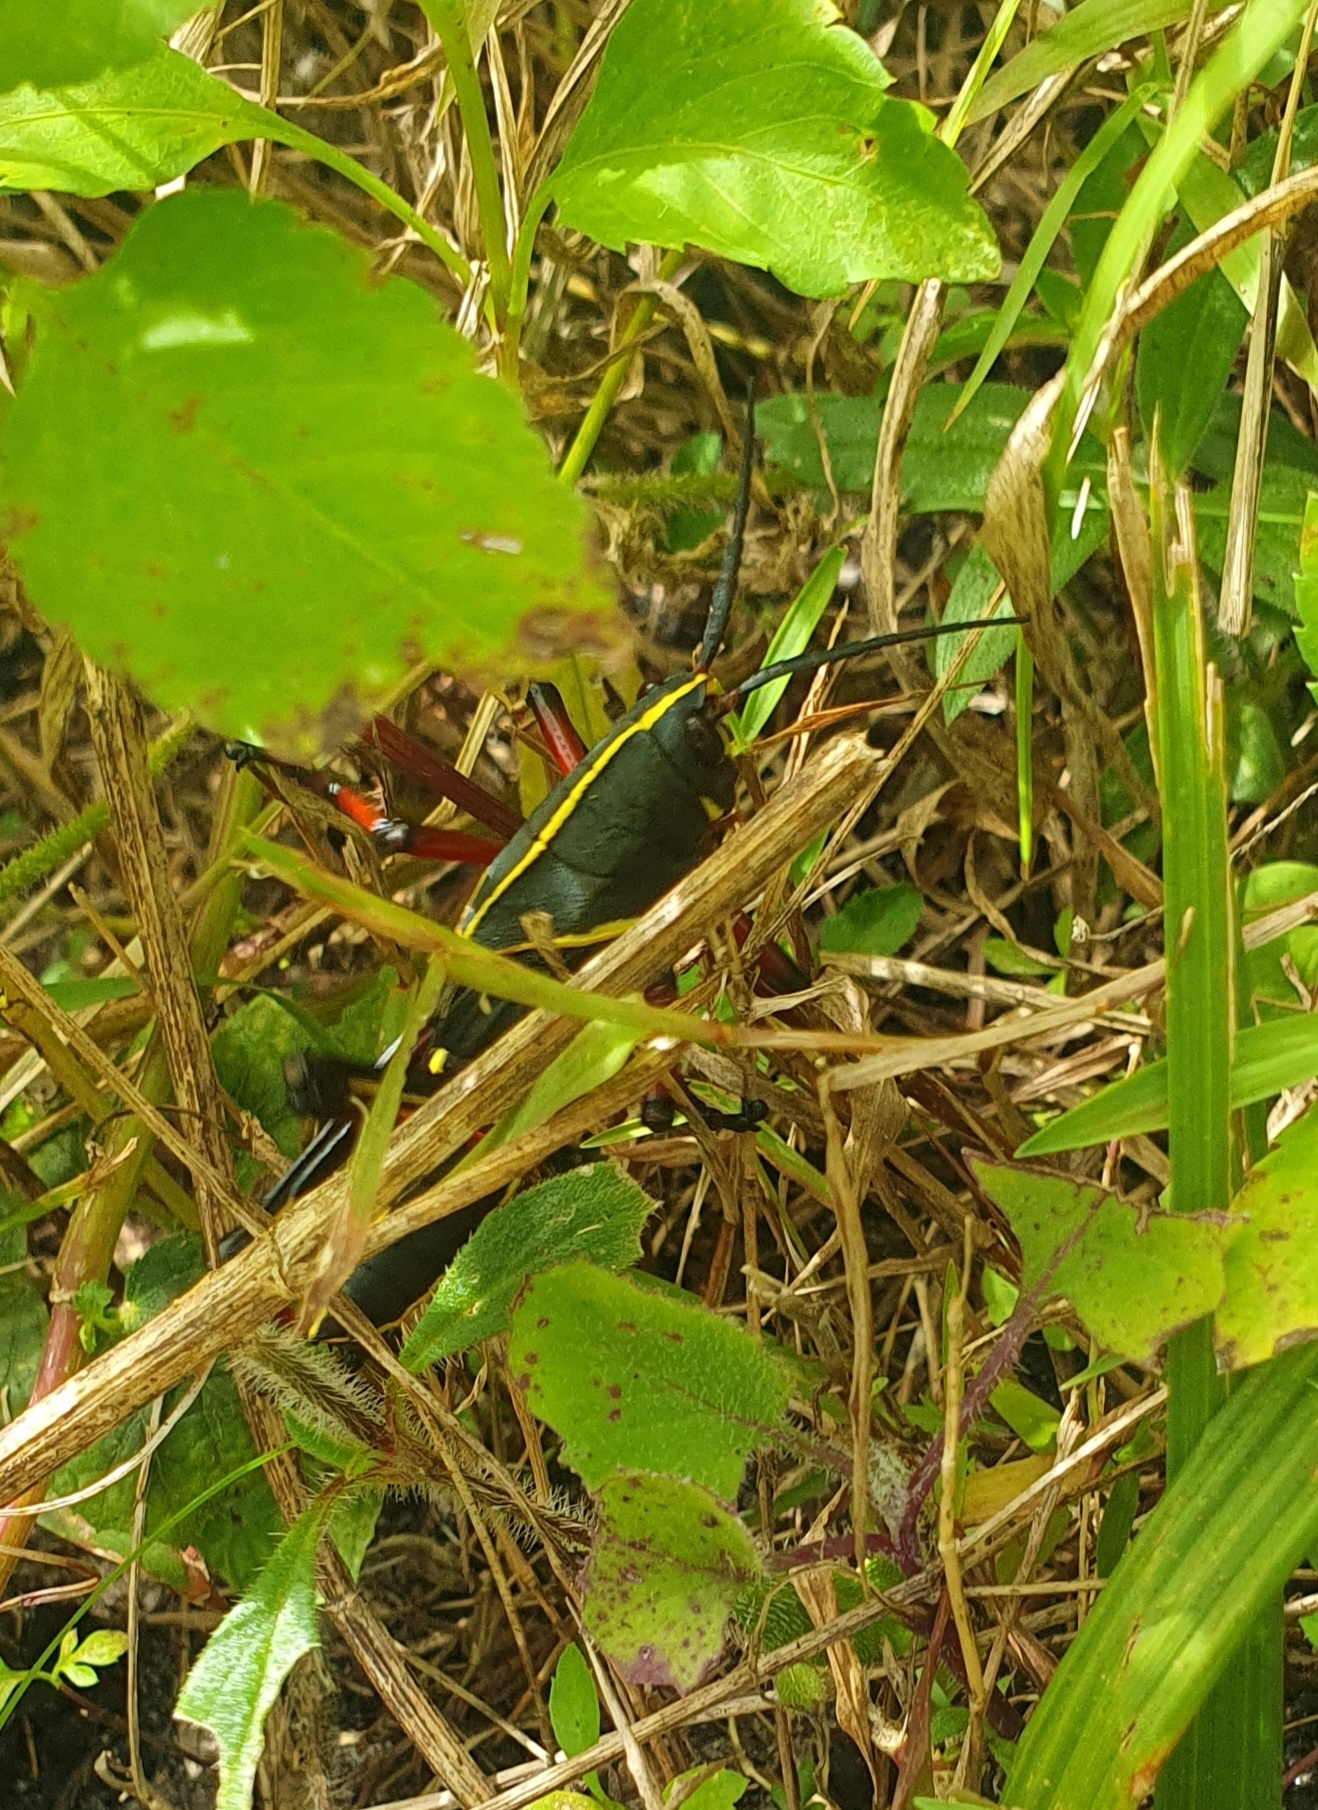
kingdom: Animalia
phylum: Arthropoda
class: Insecta
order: Orthoptera
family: Romaleidae
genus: Romalea
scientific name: Romalea microptera
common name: Eastern lubber grasshopper
